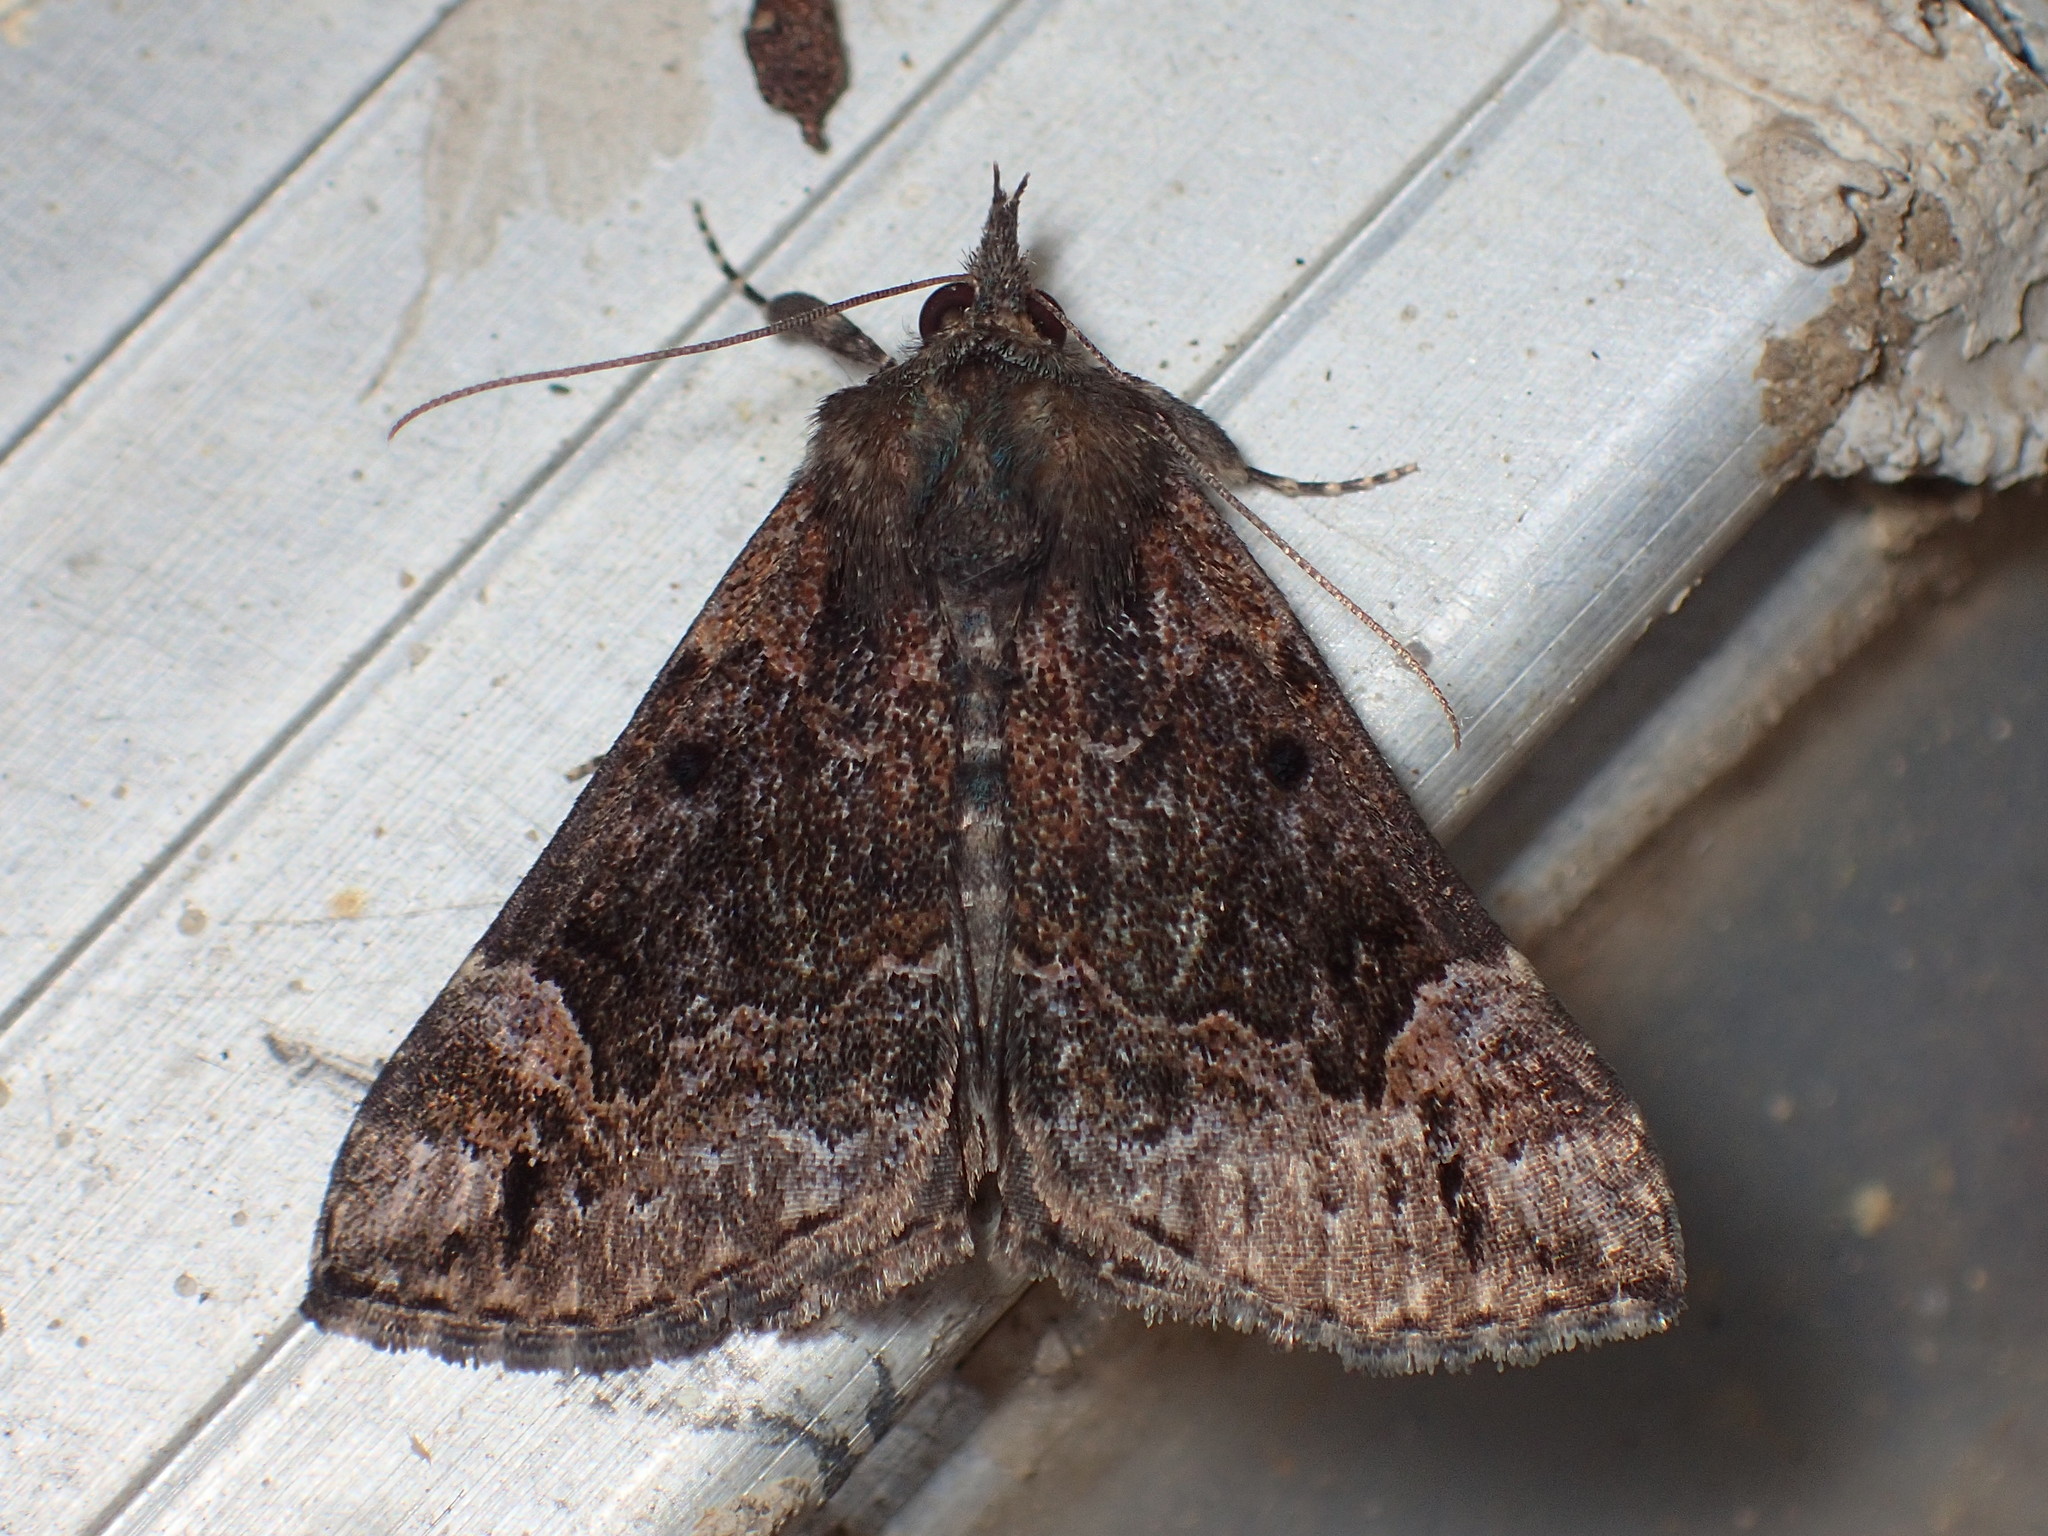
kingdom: Animalia
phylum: Arthropoda
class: Insecta
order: Lepidoptera
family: Erebidae
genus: Hypena
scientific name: Hypena palparia
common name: Mottled bomolocha moth
